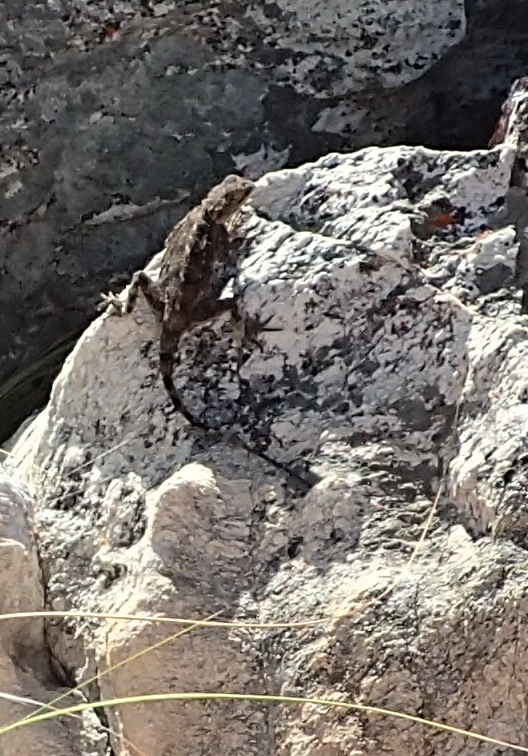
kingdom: Animalia
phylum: Chordata
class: Squamata
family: Agamidae
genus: Agama
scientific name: Agama atra
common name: Southern african rock agama
